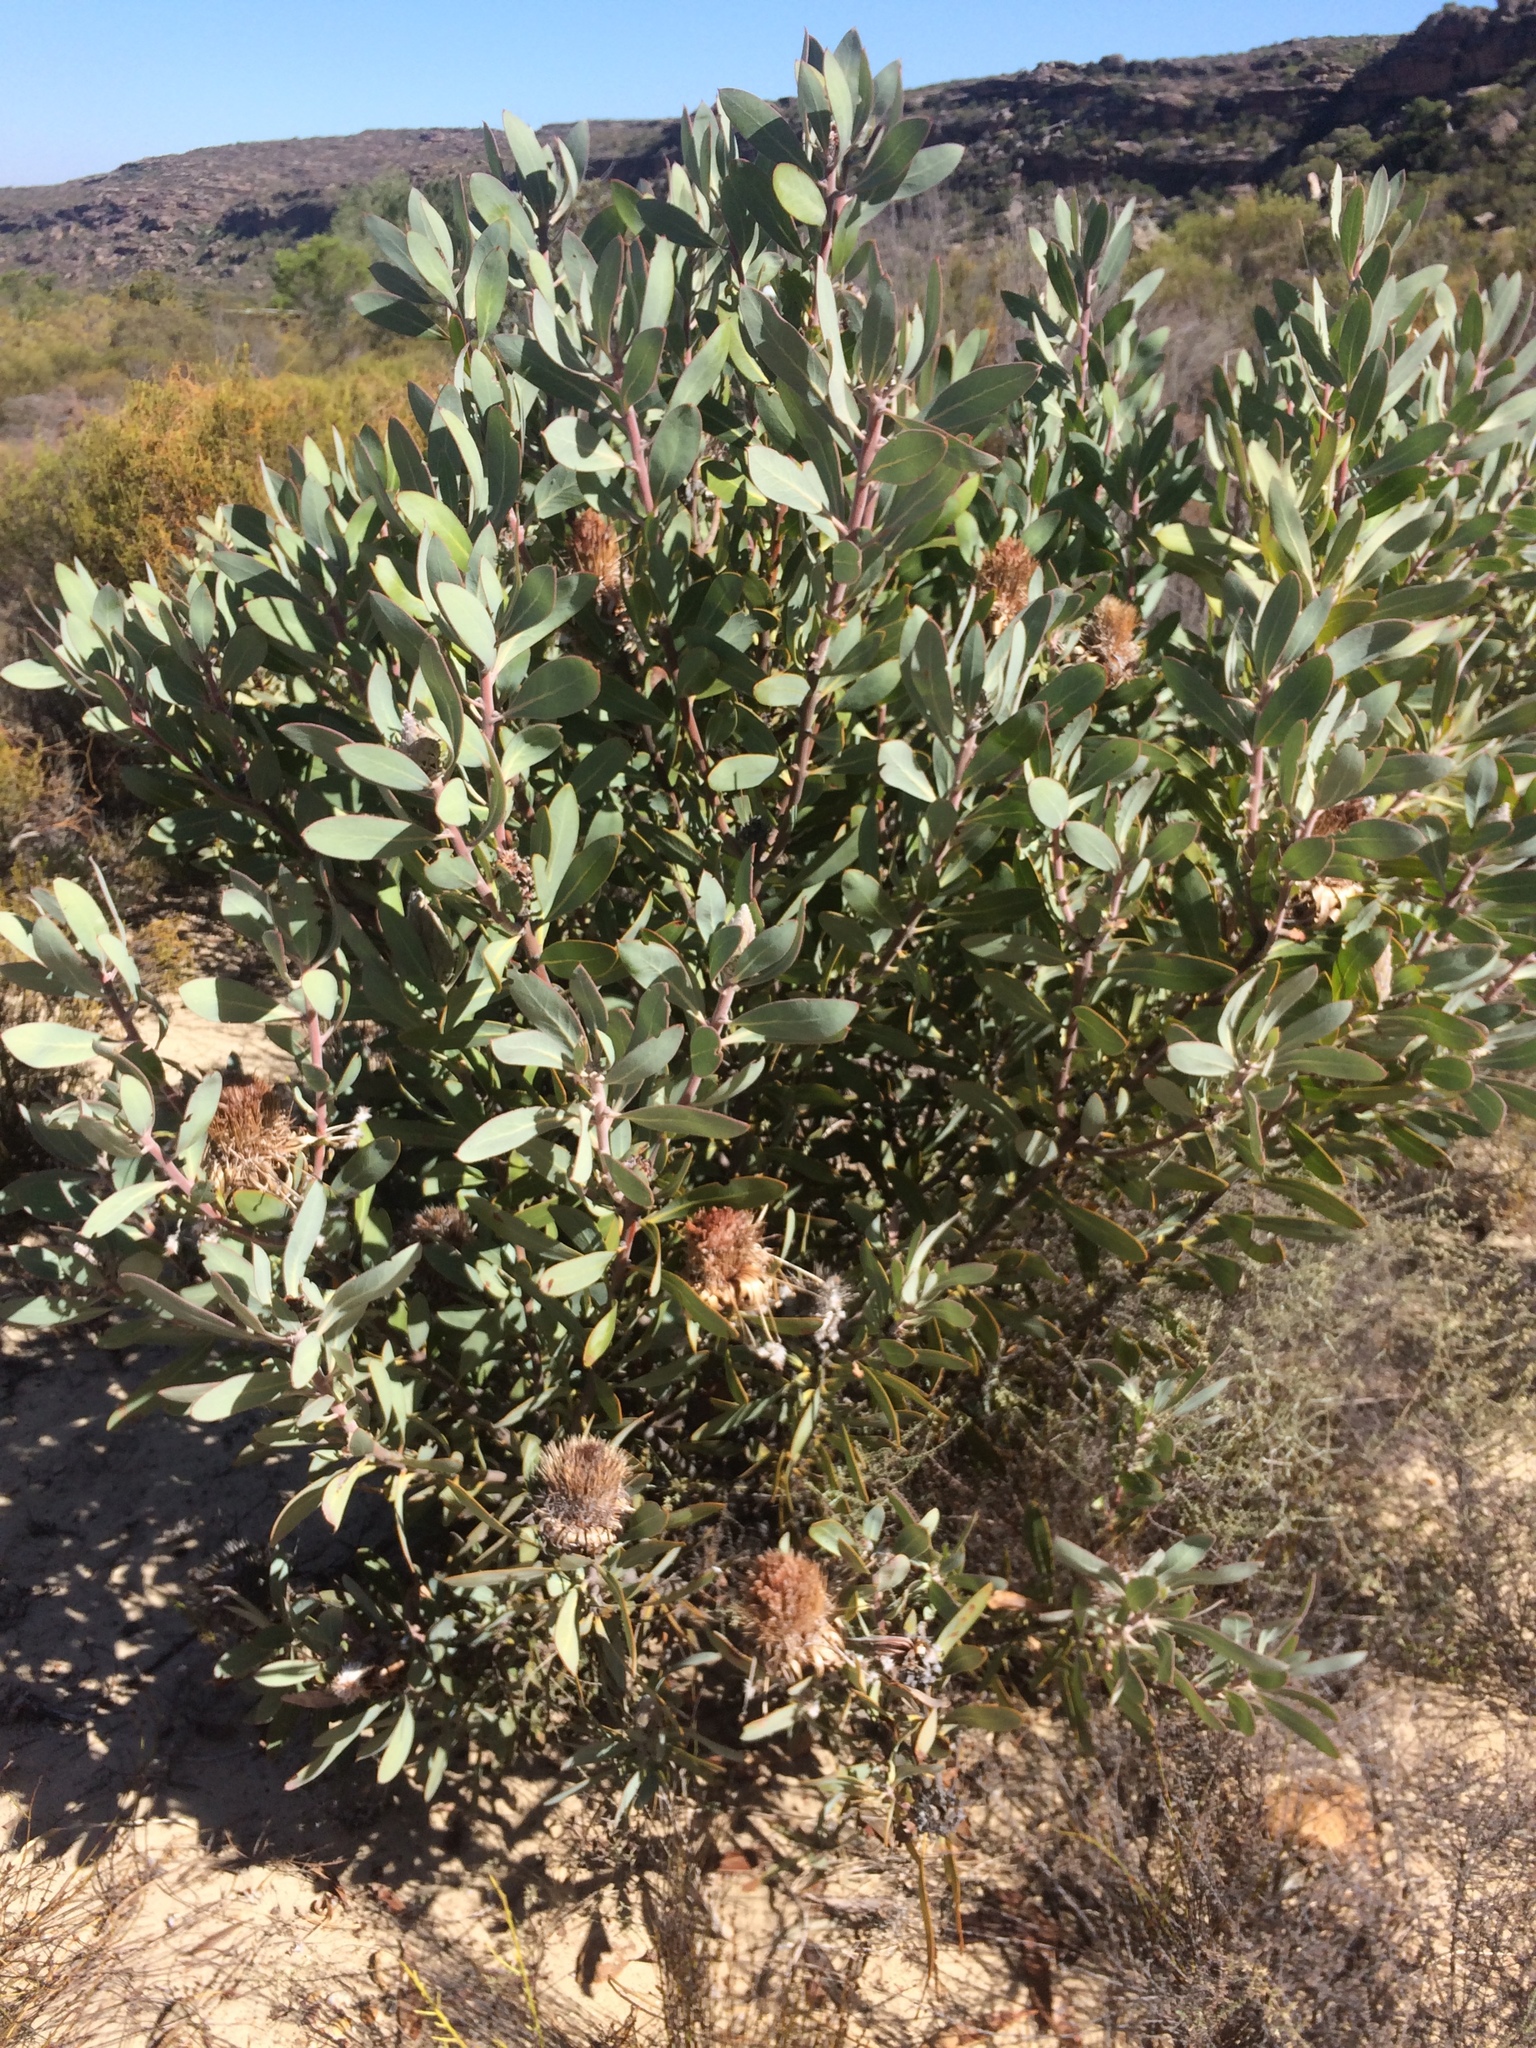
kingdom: Plantae
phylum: Tracheophyta
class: Magnoliopsida
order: Proteales
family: Proteaceae
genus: Protea
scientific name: Protea laurifolia
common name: Grey-leaf sugarbsh
